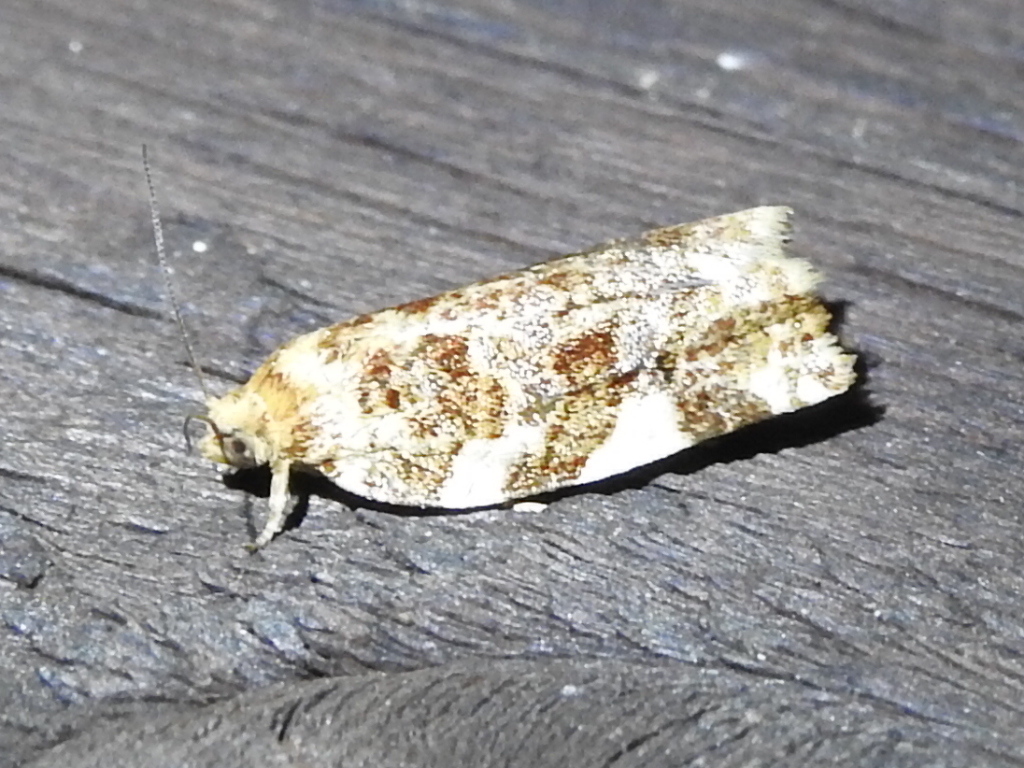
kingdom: Animalia
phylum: Arthropoda
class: Insecta
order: Lepidoptera
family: Tortricidae
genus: Archips
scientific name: Archips argyrospila
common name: Fruit-tree leafroller moth
